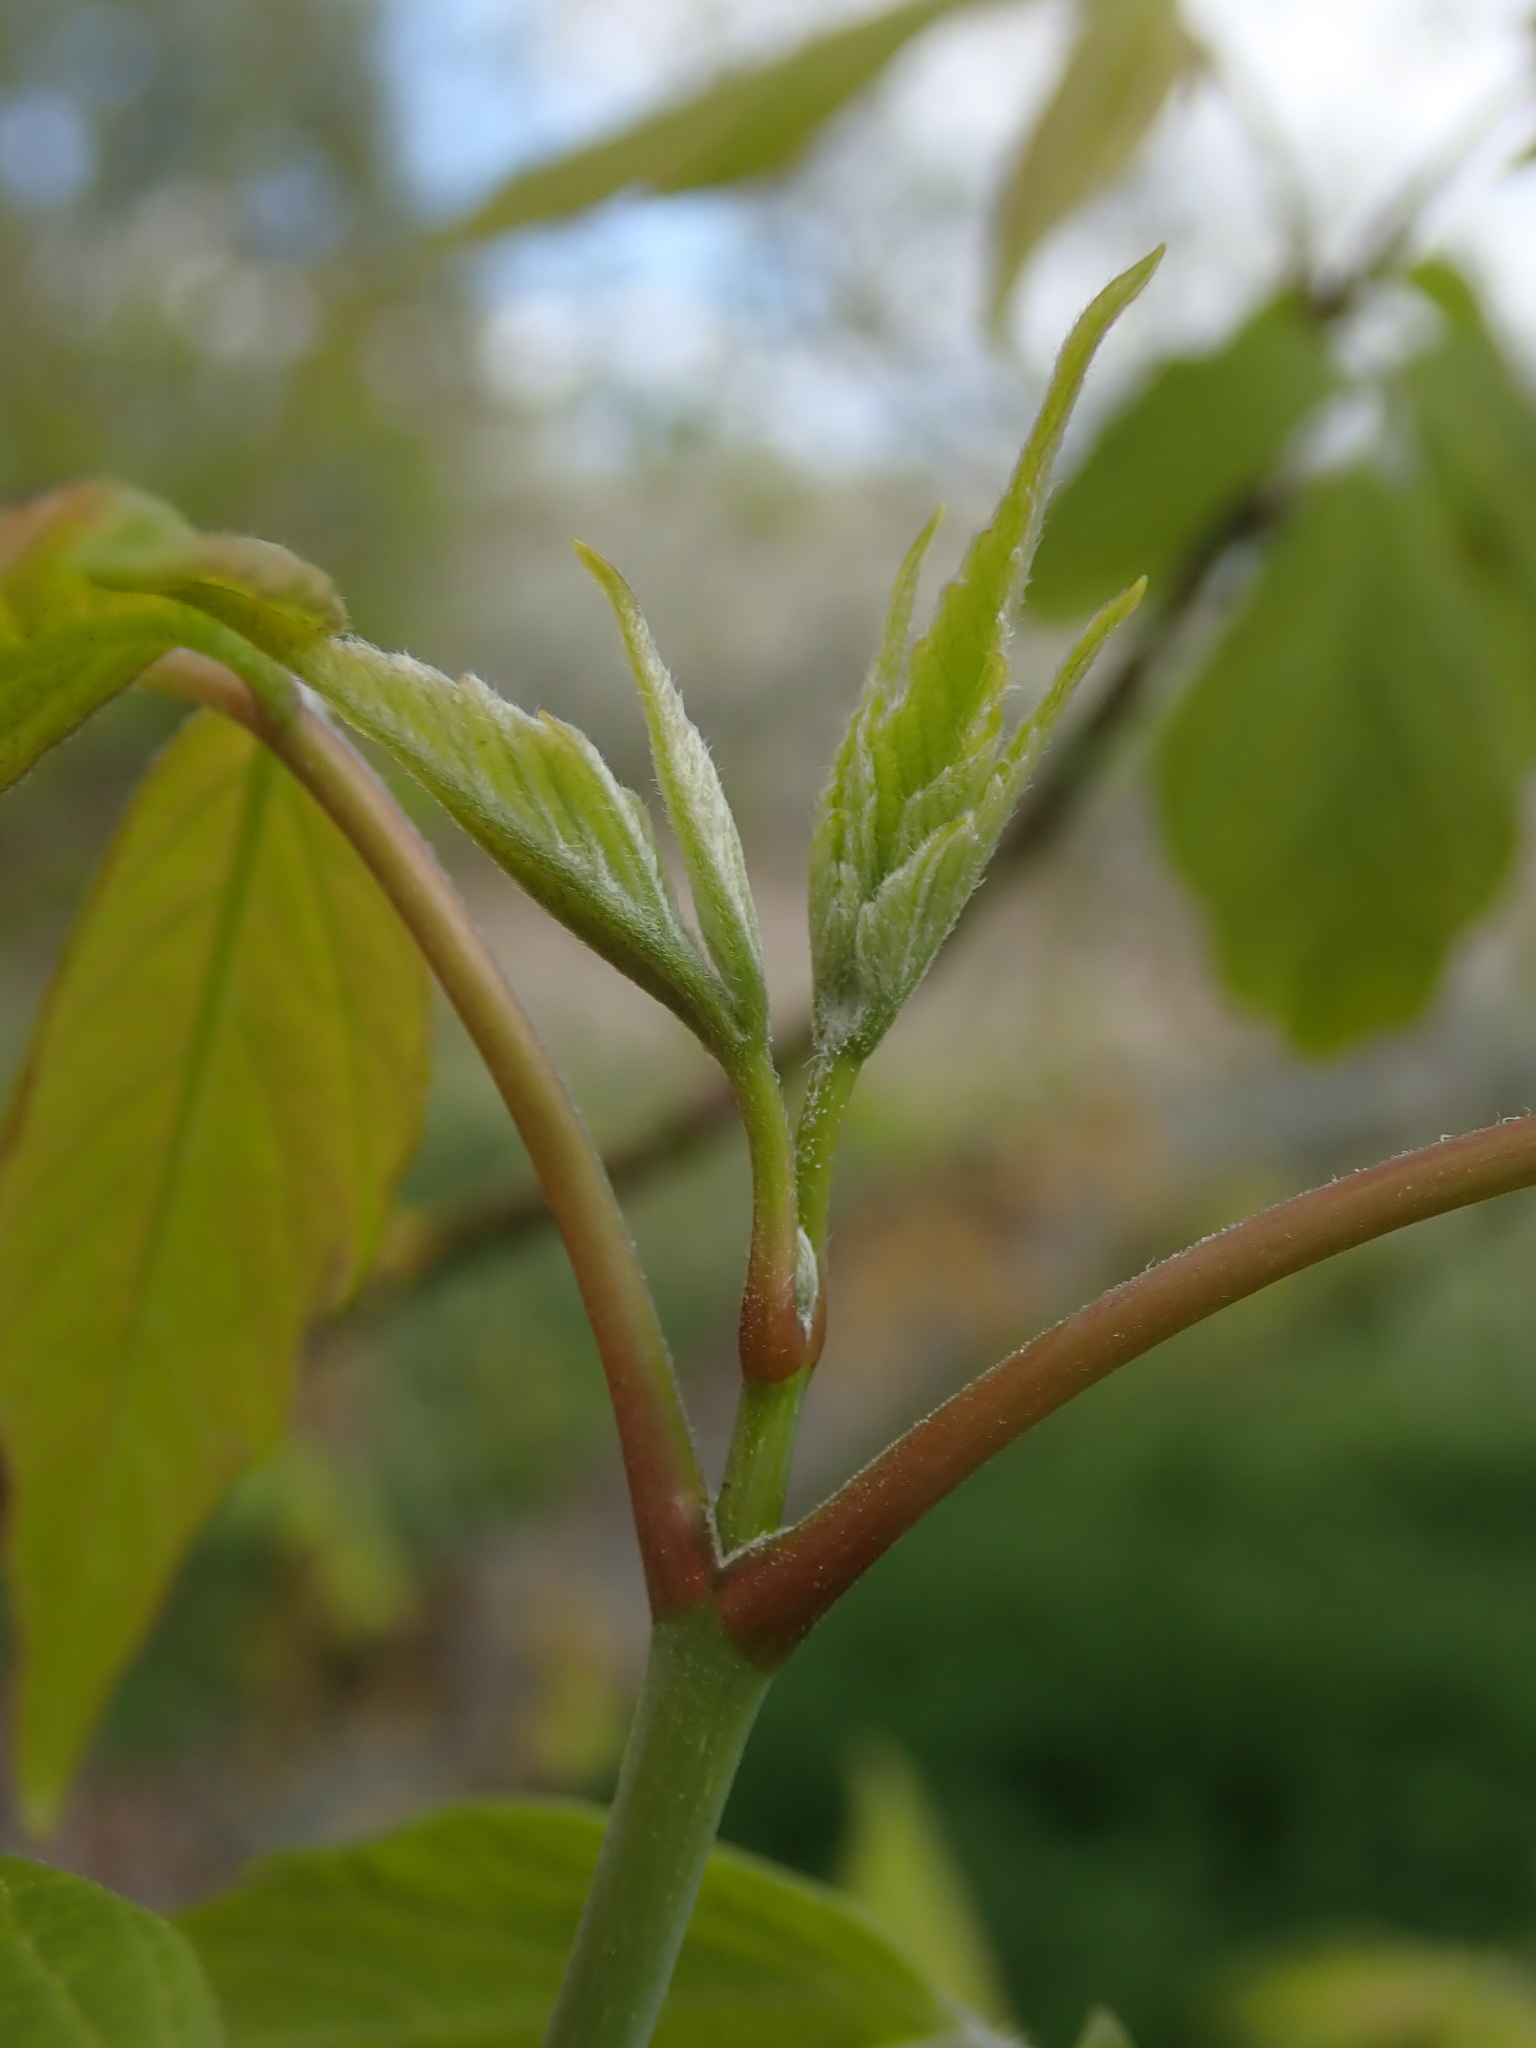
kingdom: Plantae
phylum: Tracheophyta
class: Magnoliopsida
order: Sapindales
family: Sapindaceae
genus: Acer
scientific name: Acer negundo
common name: Ashleaf maple
